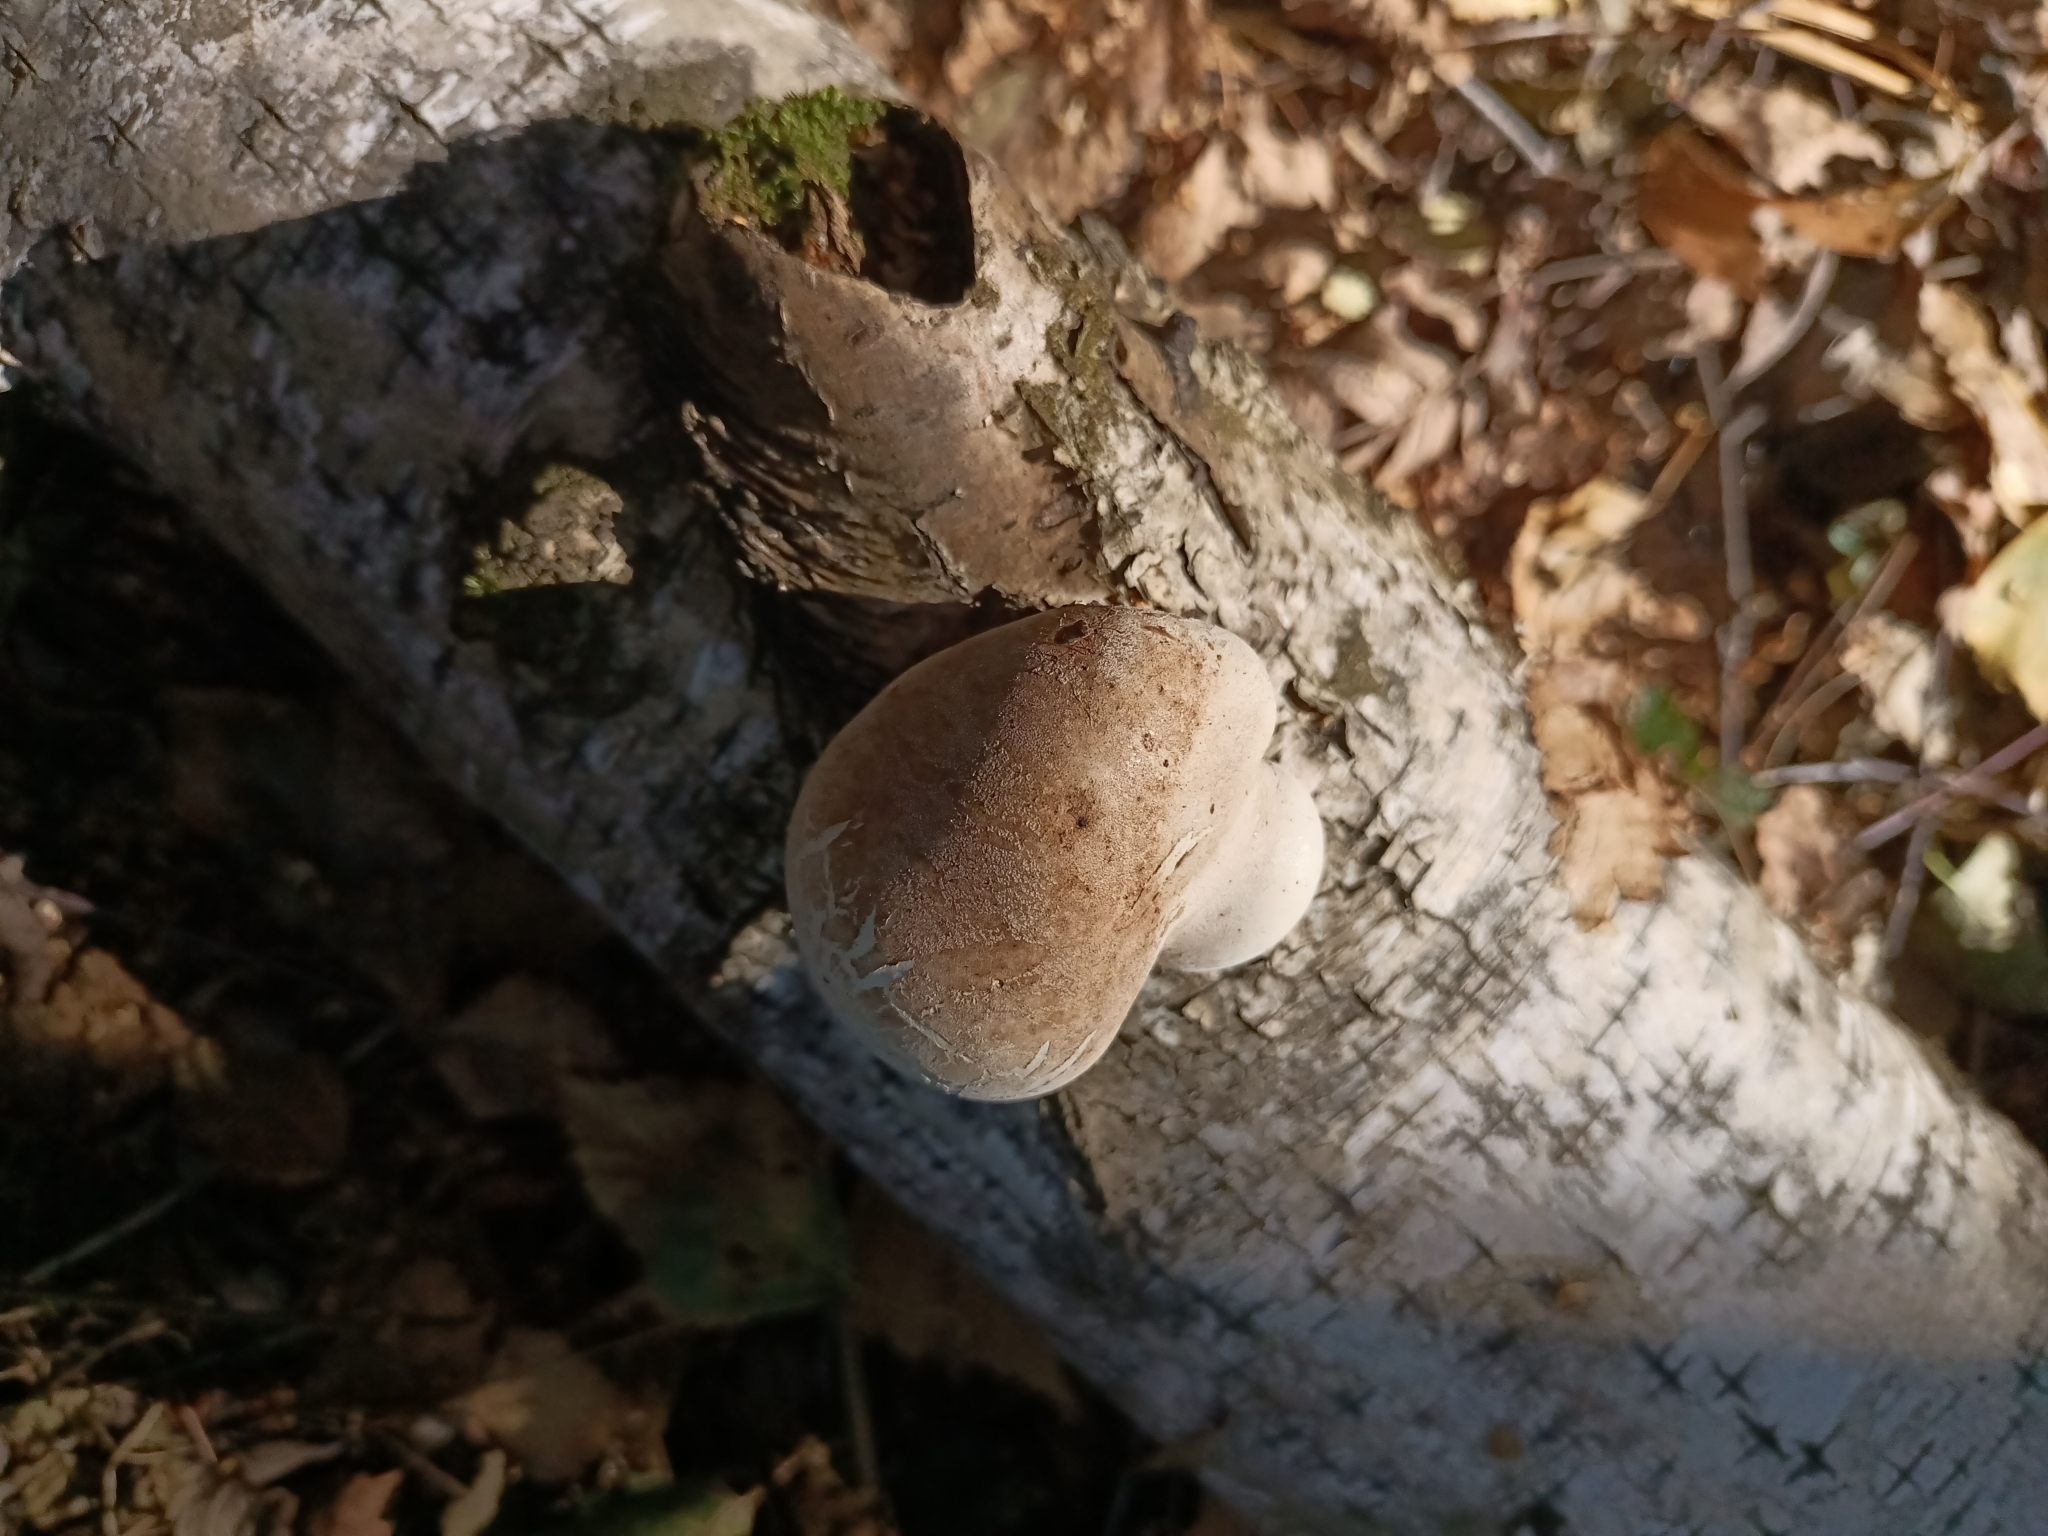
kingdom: Fungi
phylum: Basidiomycota
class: Agaricomycetes
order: Polyporales
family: Fomitopsidaceae
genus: Fomitopsis
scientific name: Fomitopsis betulina
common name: Birch polypore
